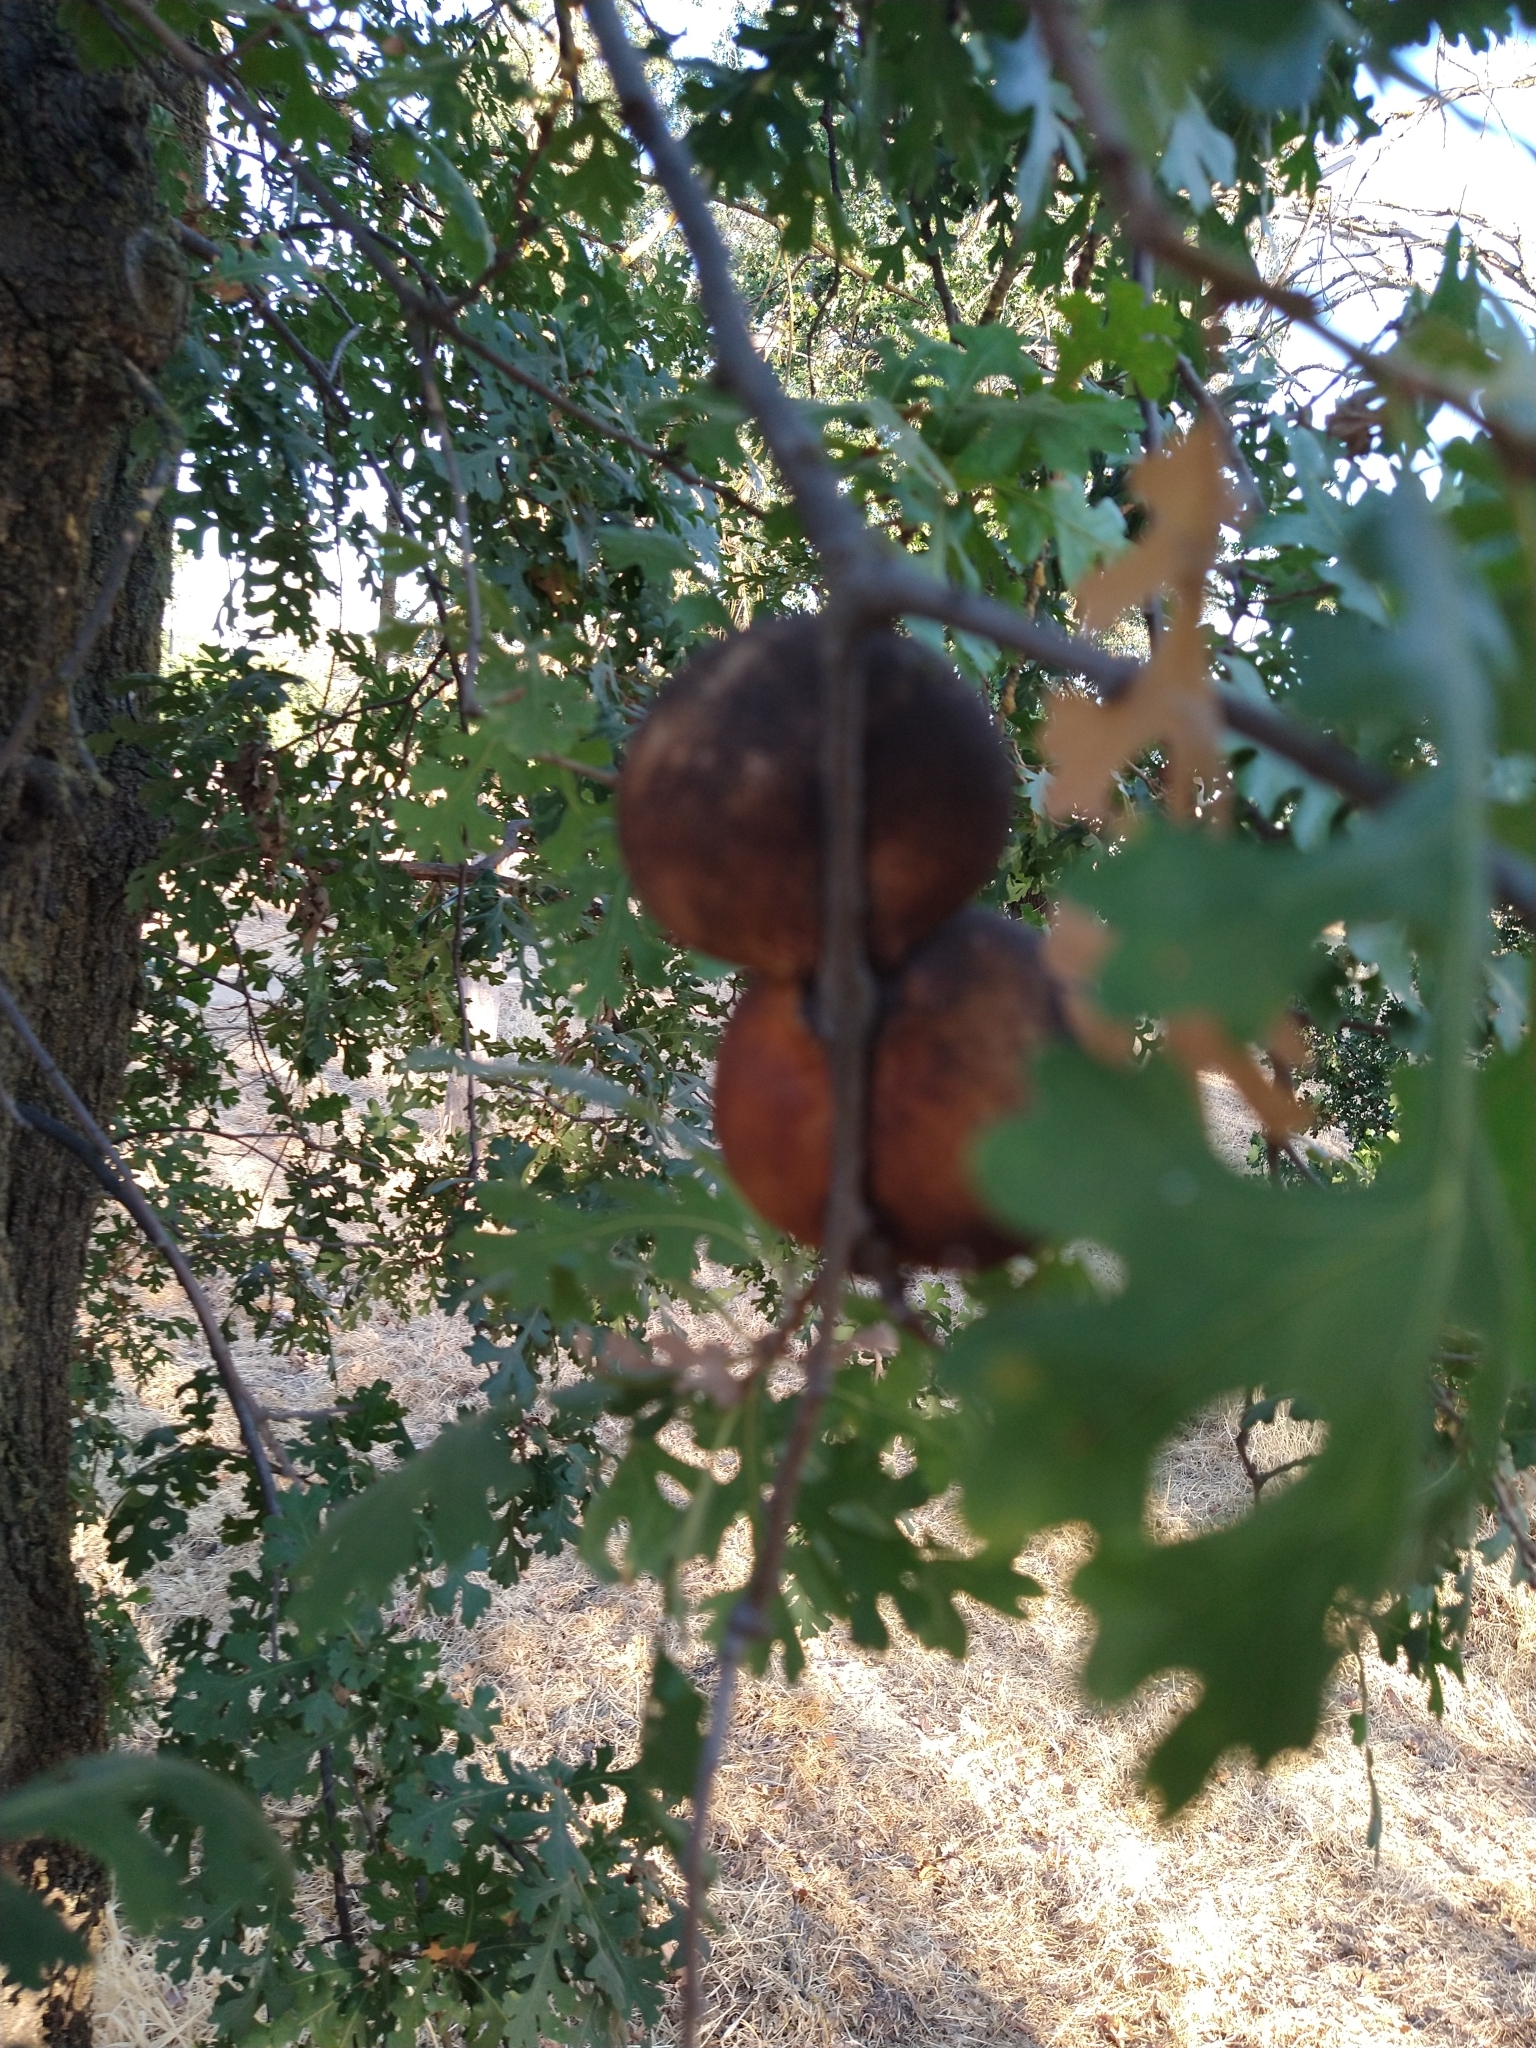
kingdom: Animalia
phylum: Arthropoda
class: Insecta
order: Hymenoptera
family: Cynipidae
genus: Andricus
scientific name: Andricus quercuscalifornicus
